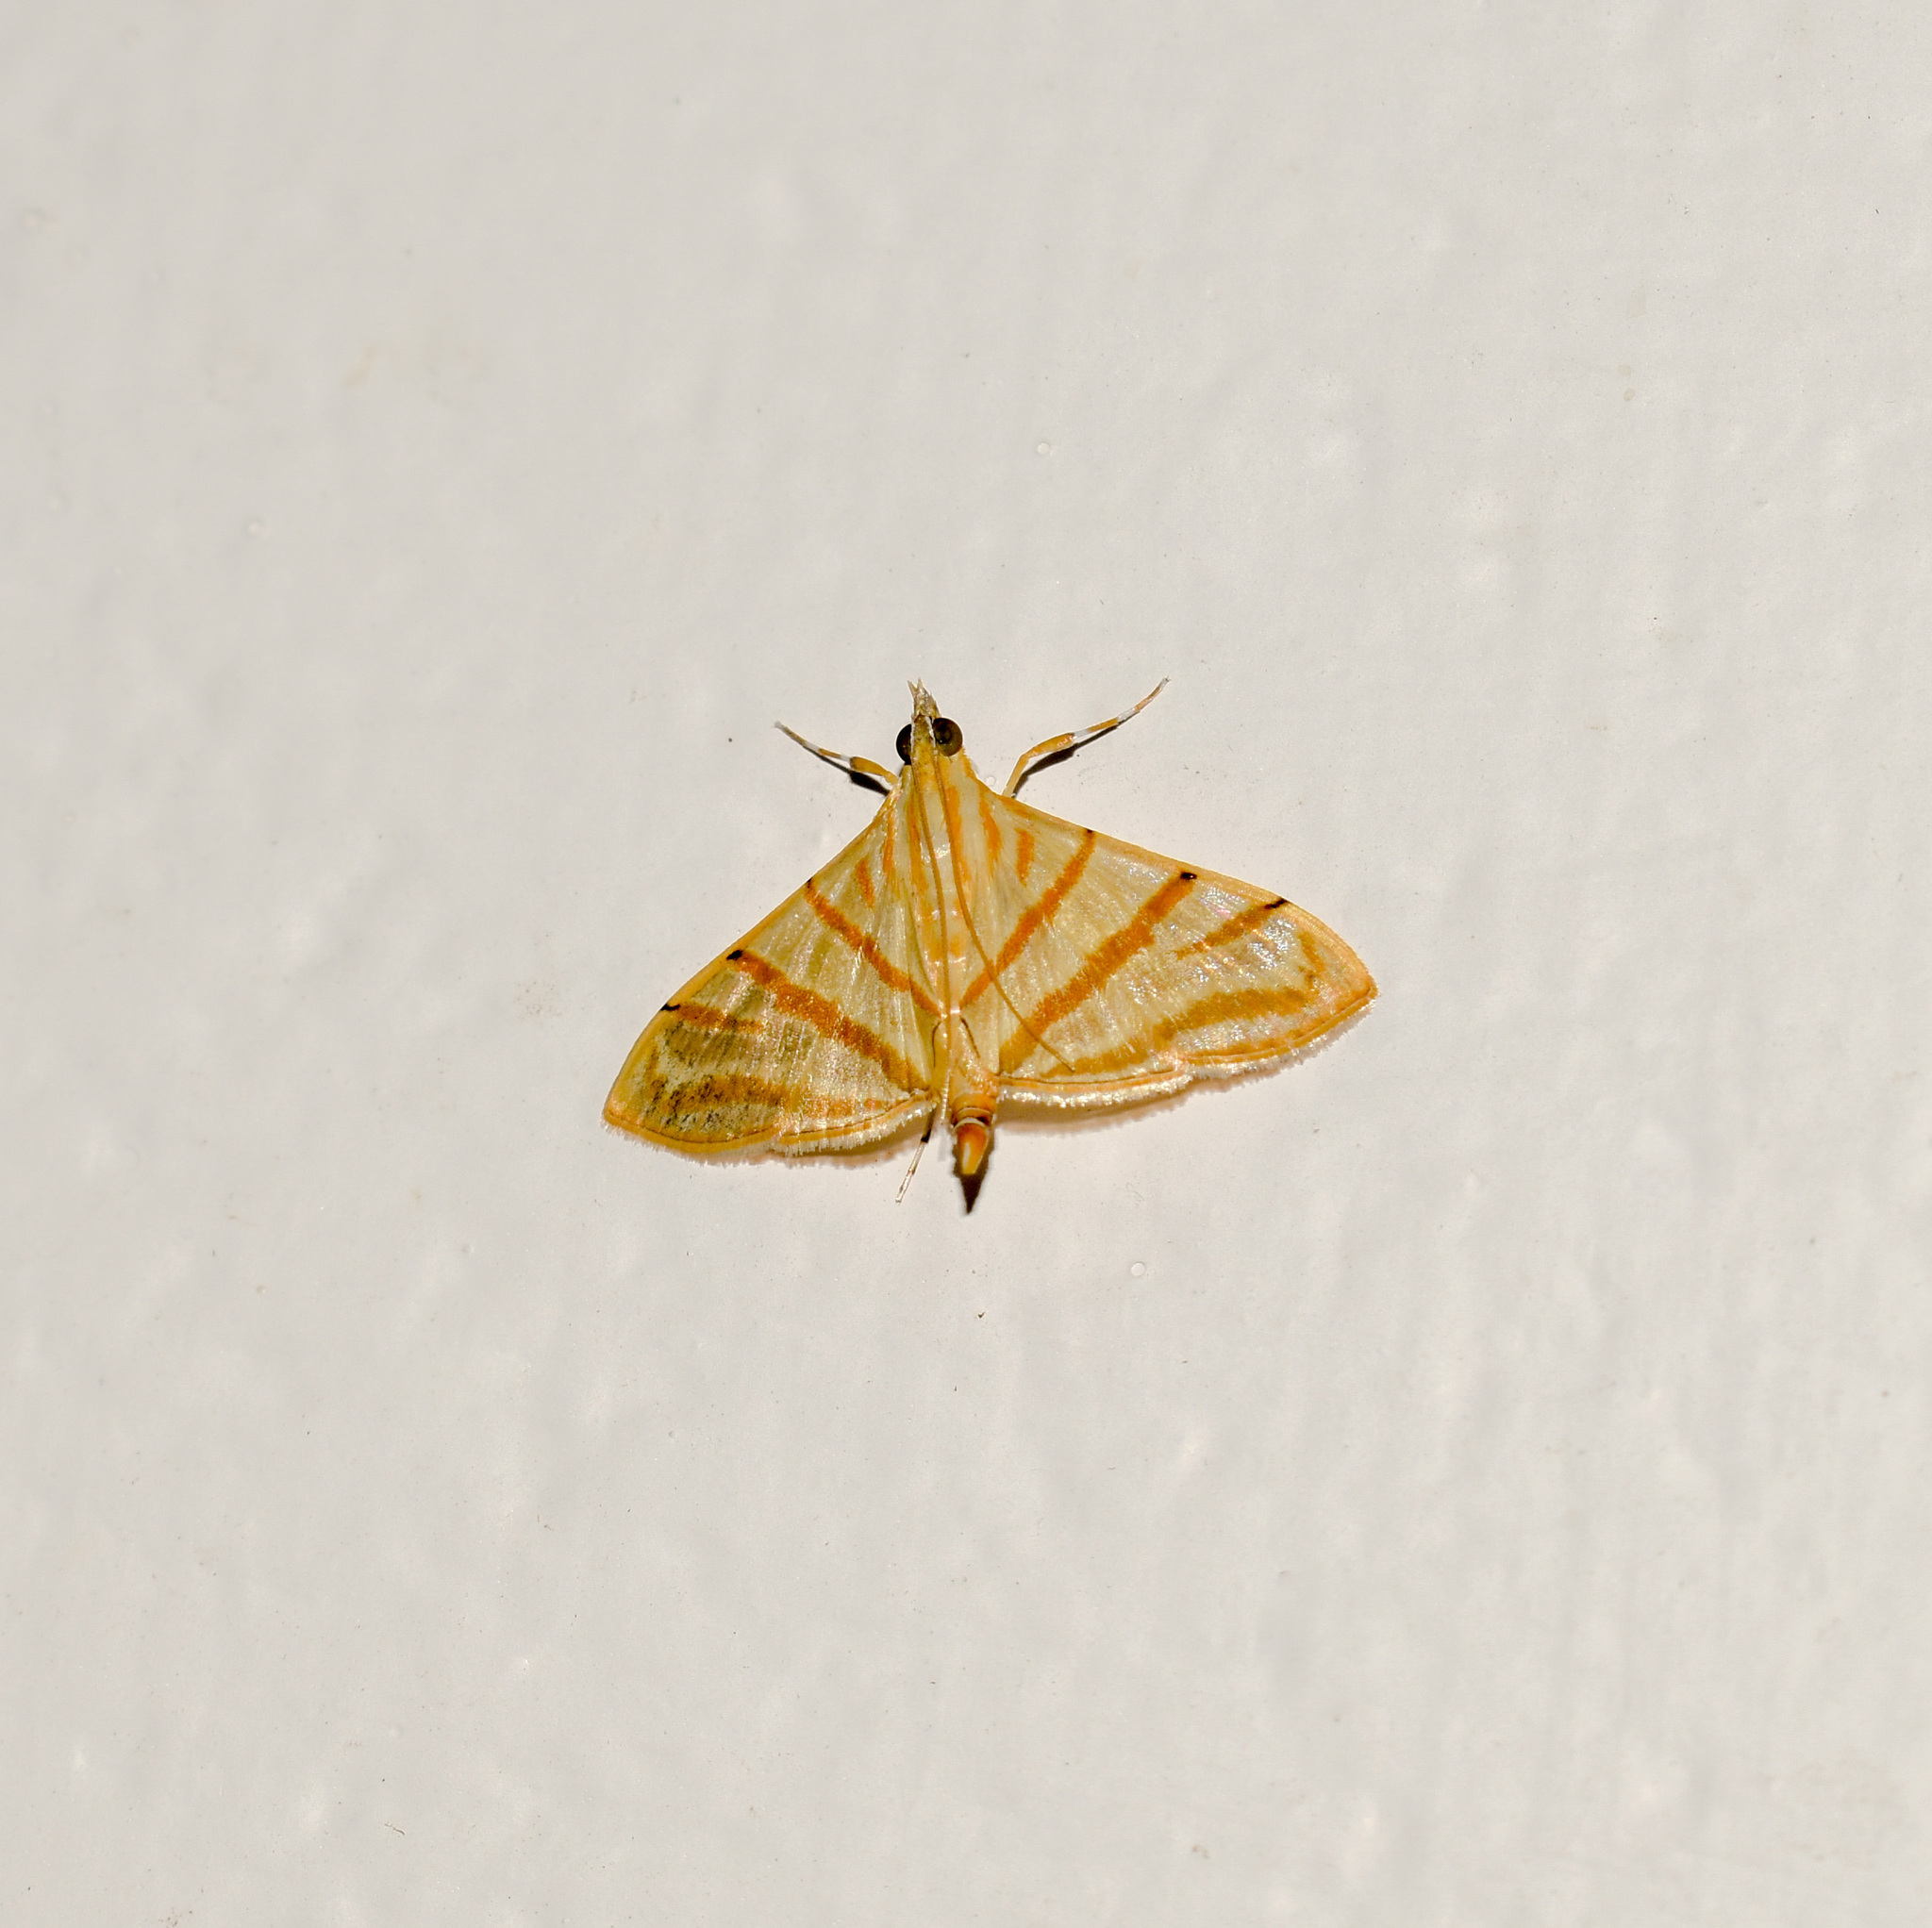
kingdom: Animalia
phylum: Arthropoda
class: Insecta
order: Lepidoptera
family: Crambidae
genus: Pagyda
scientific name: Pagyda salvalis
